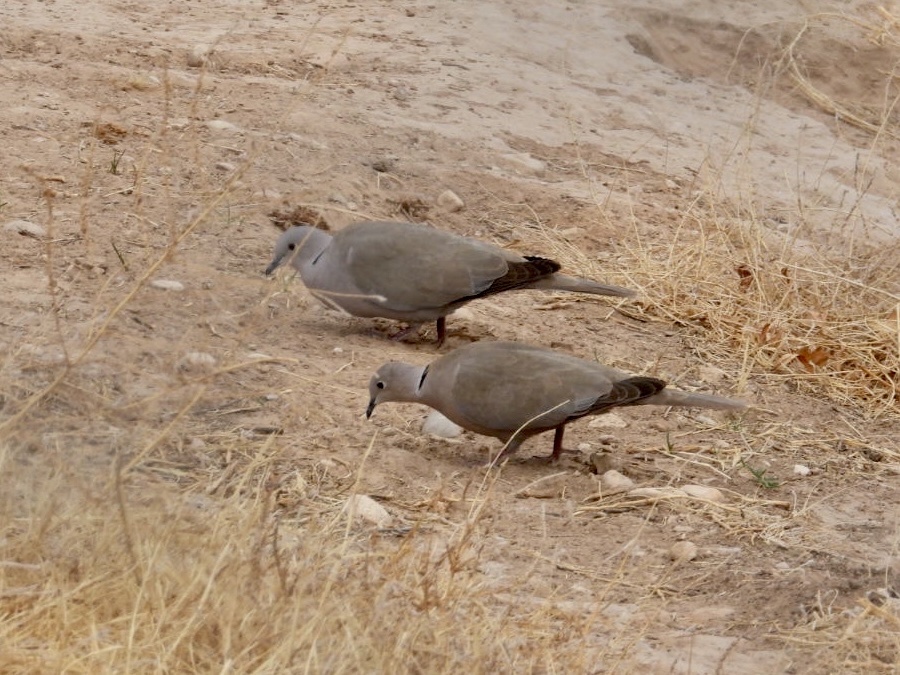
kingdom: Animalia
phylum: Chordata
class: Aves
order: Columbiformes
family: Columbidae
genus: Streptopelia
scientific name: Streptopelia decaocto
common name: Eurasian collared dove
